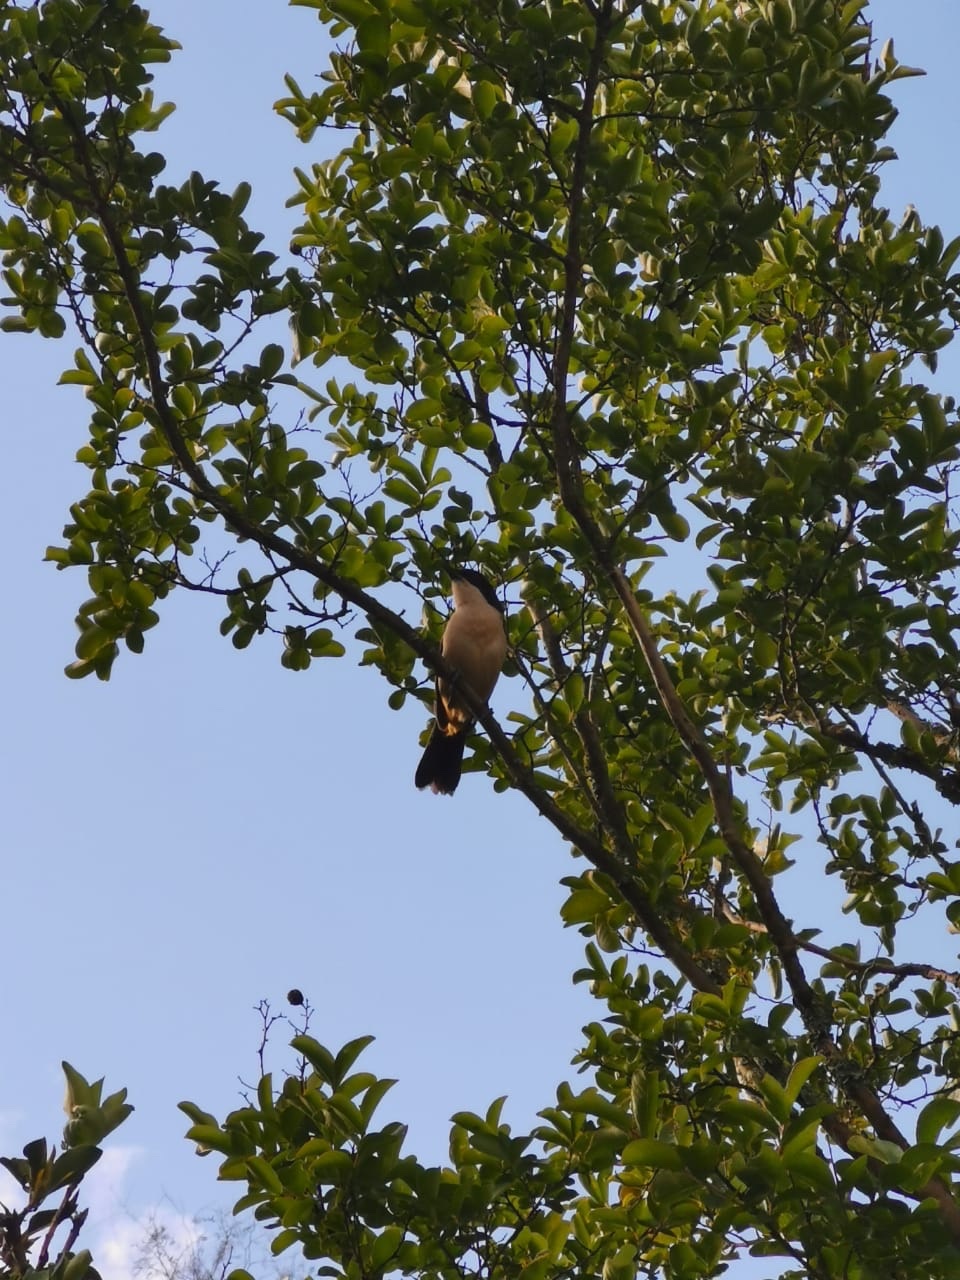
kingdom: Animalia
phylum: Chordata
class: Aves
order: Passeriformes
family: Malaconotidae
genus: Laniarius
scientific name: Laniarius ferrugineus
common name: Southern boubou
